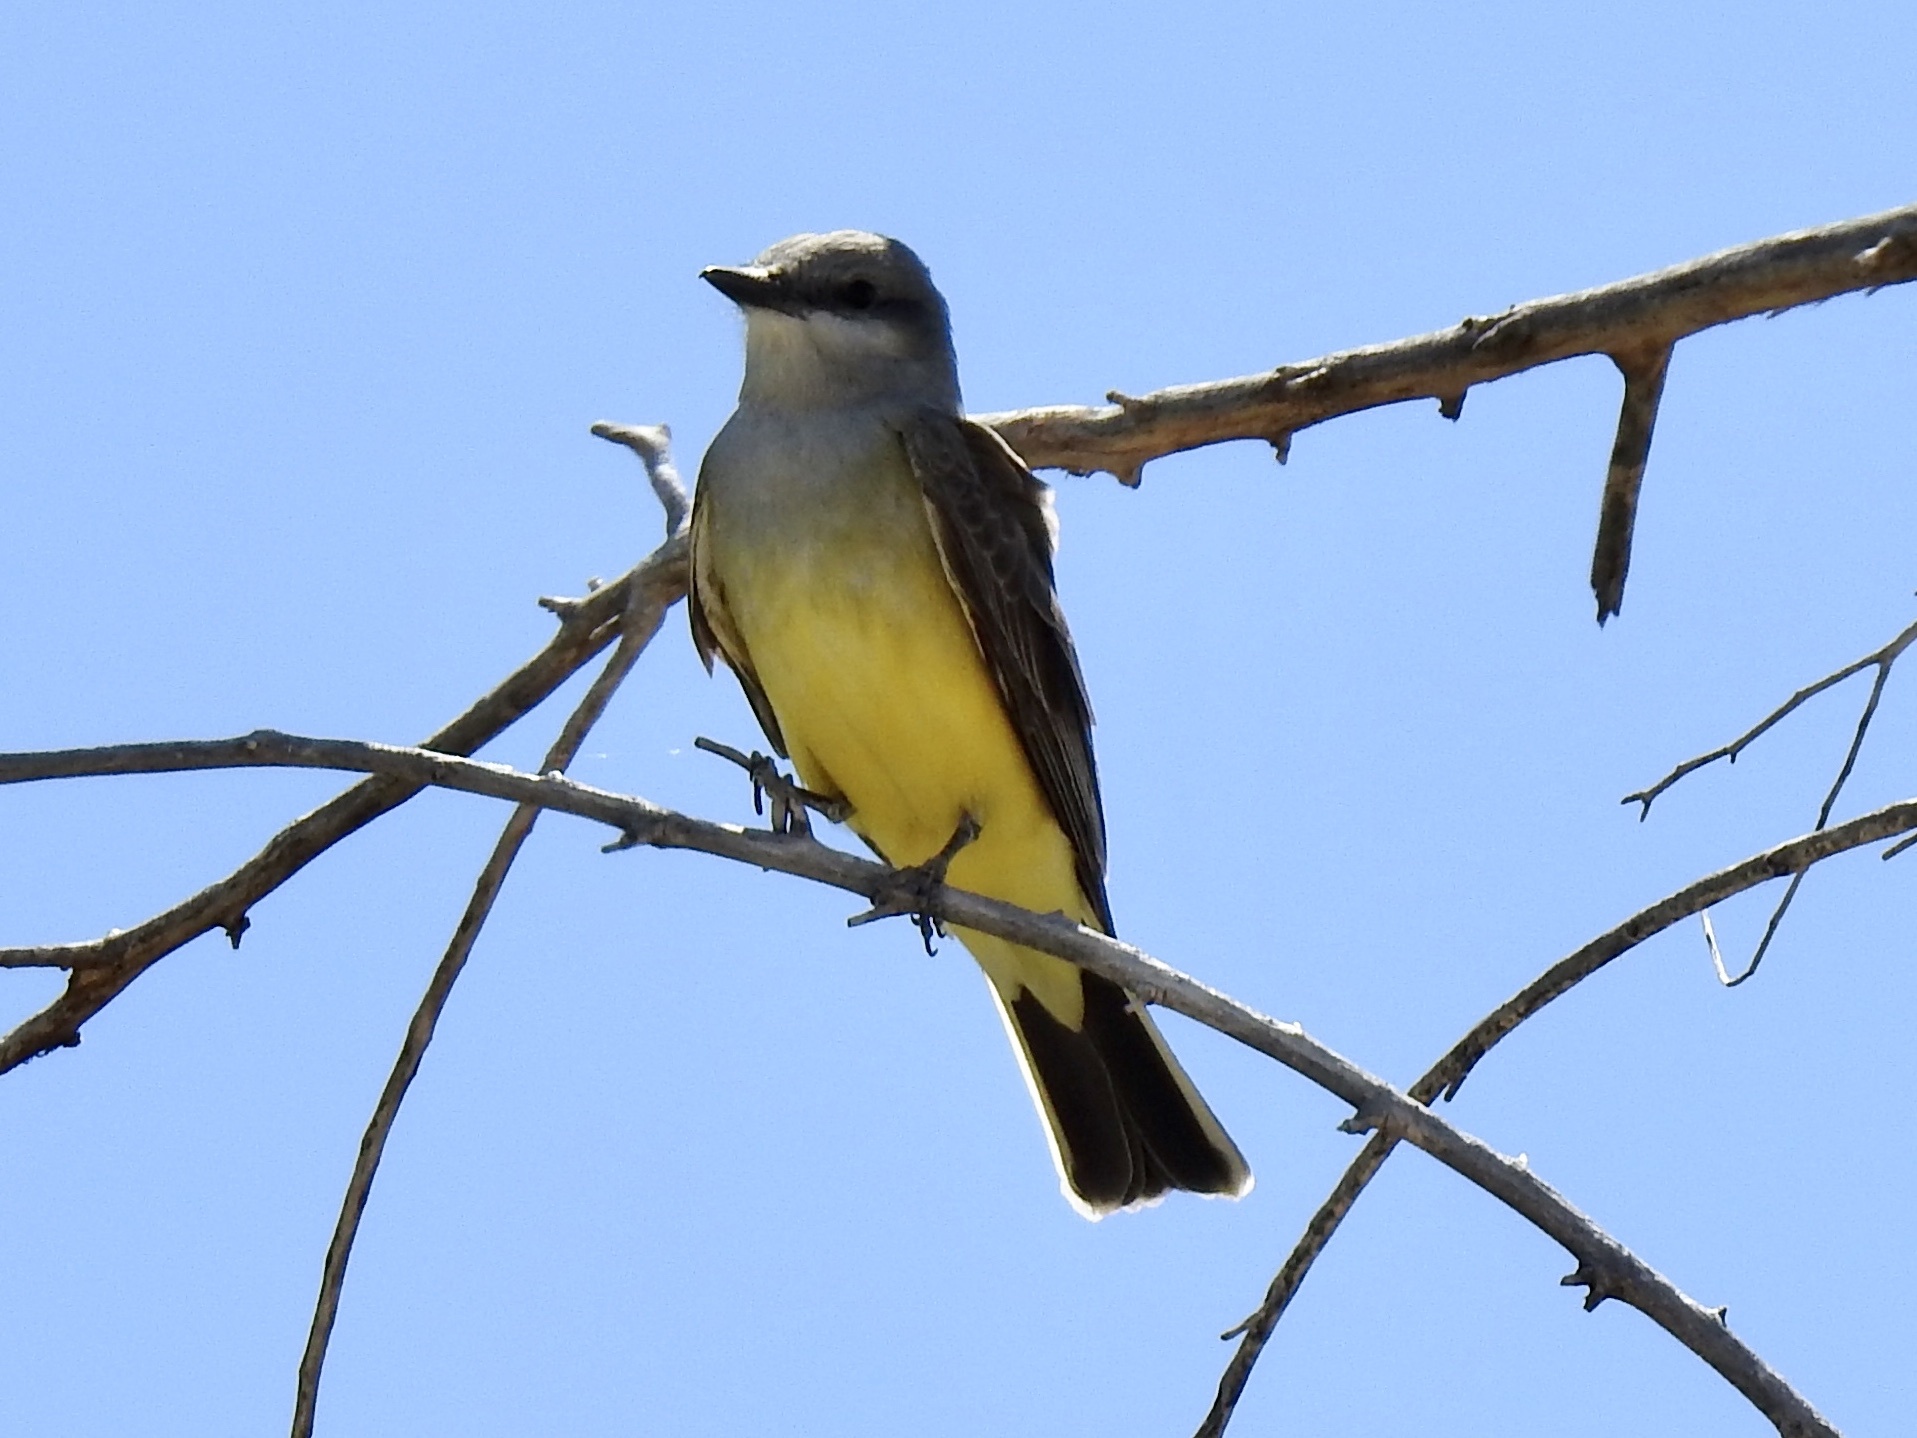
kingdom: Animalia
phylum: Chordata
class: Aves
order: Passeriformes
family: Tyrannidae
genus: Tyrannus
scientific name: Tyrannus verticalis
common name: Western kingbird
